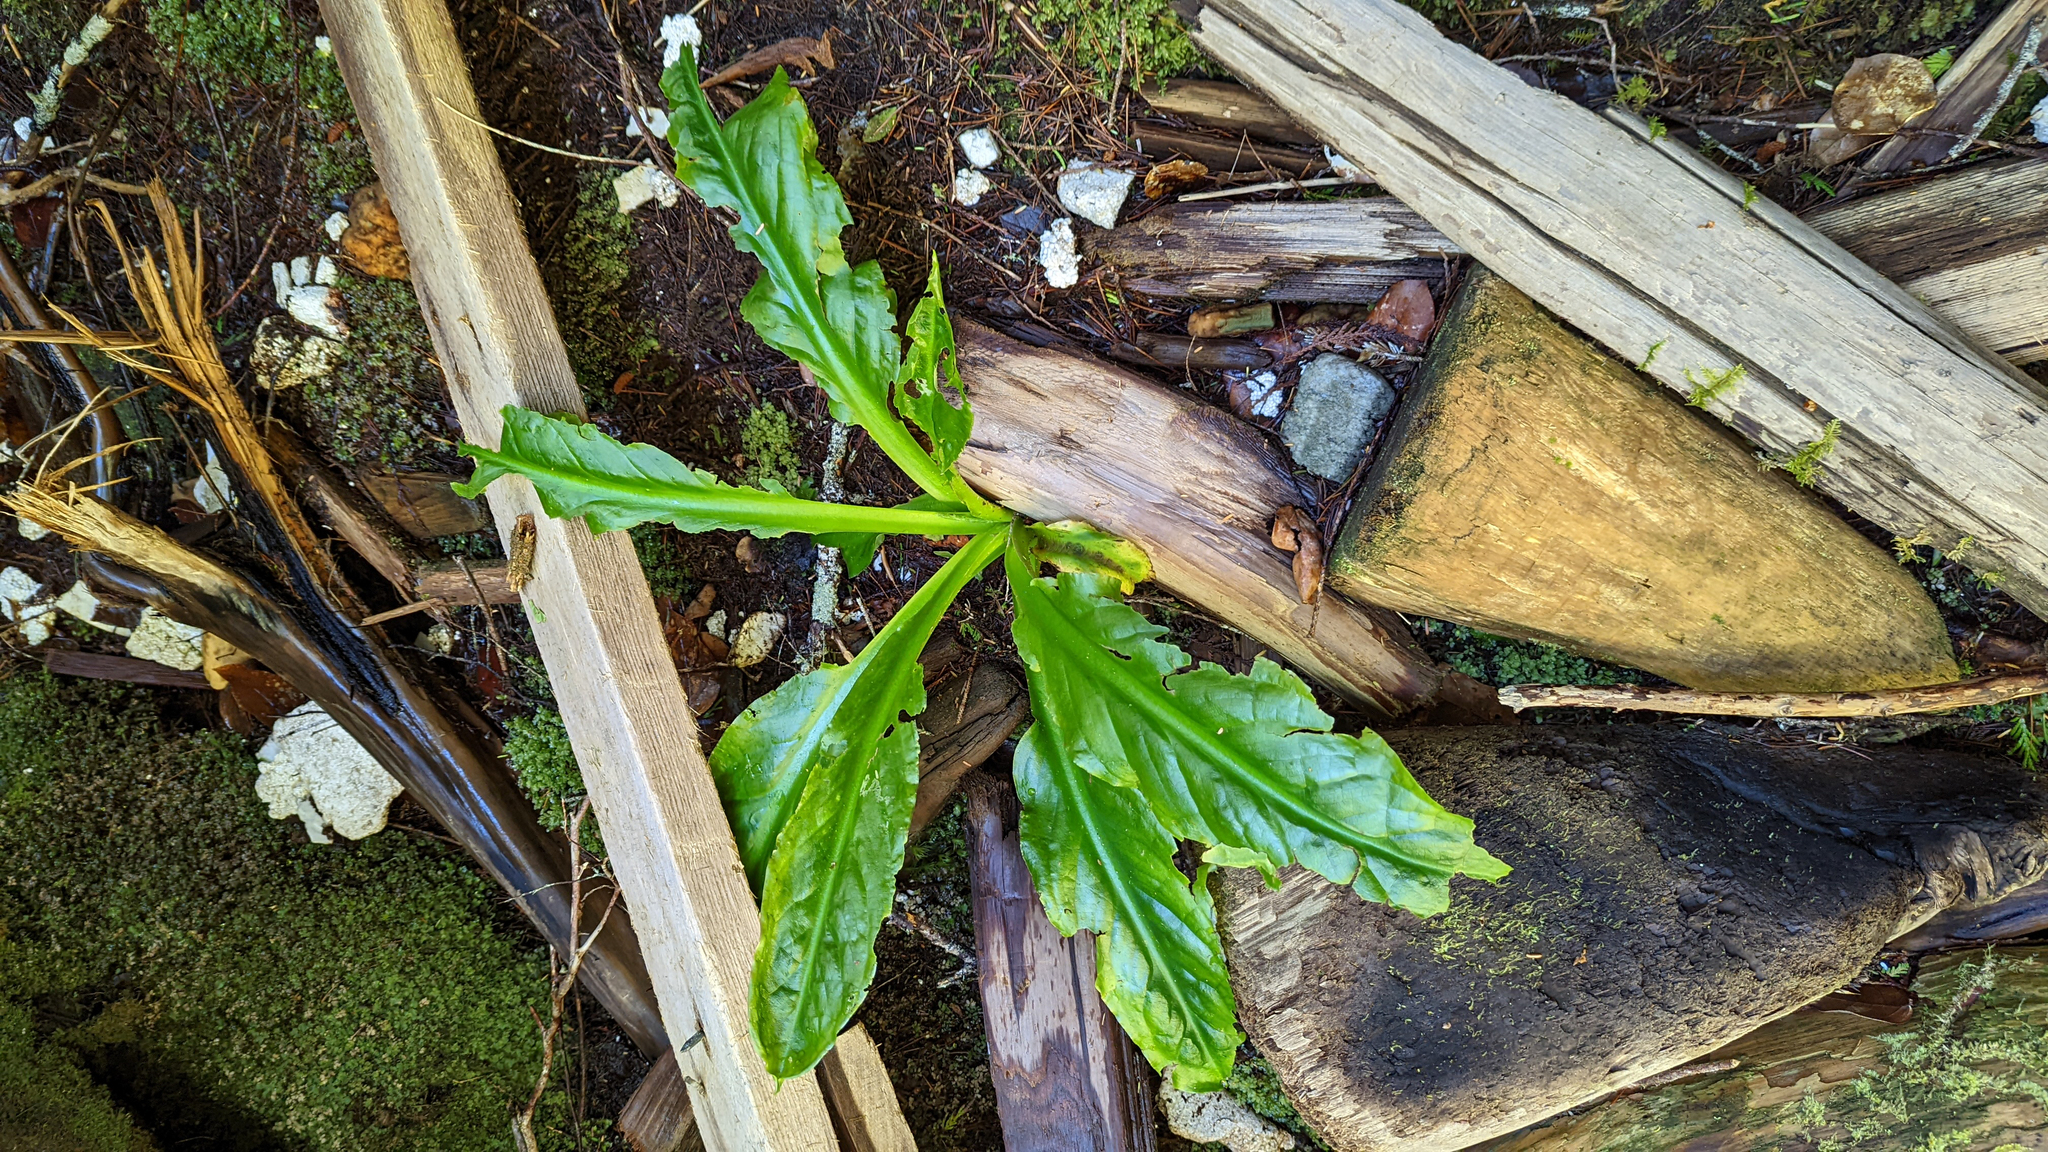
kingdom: Plantae
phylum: Tracheophyta
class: Liliopsida
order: Alismatales
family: Araceae
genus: Lysichiton
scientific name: Lysichiton americanus
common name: American skunk cabbage
